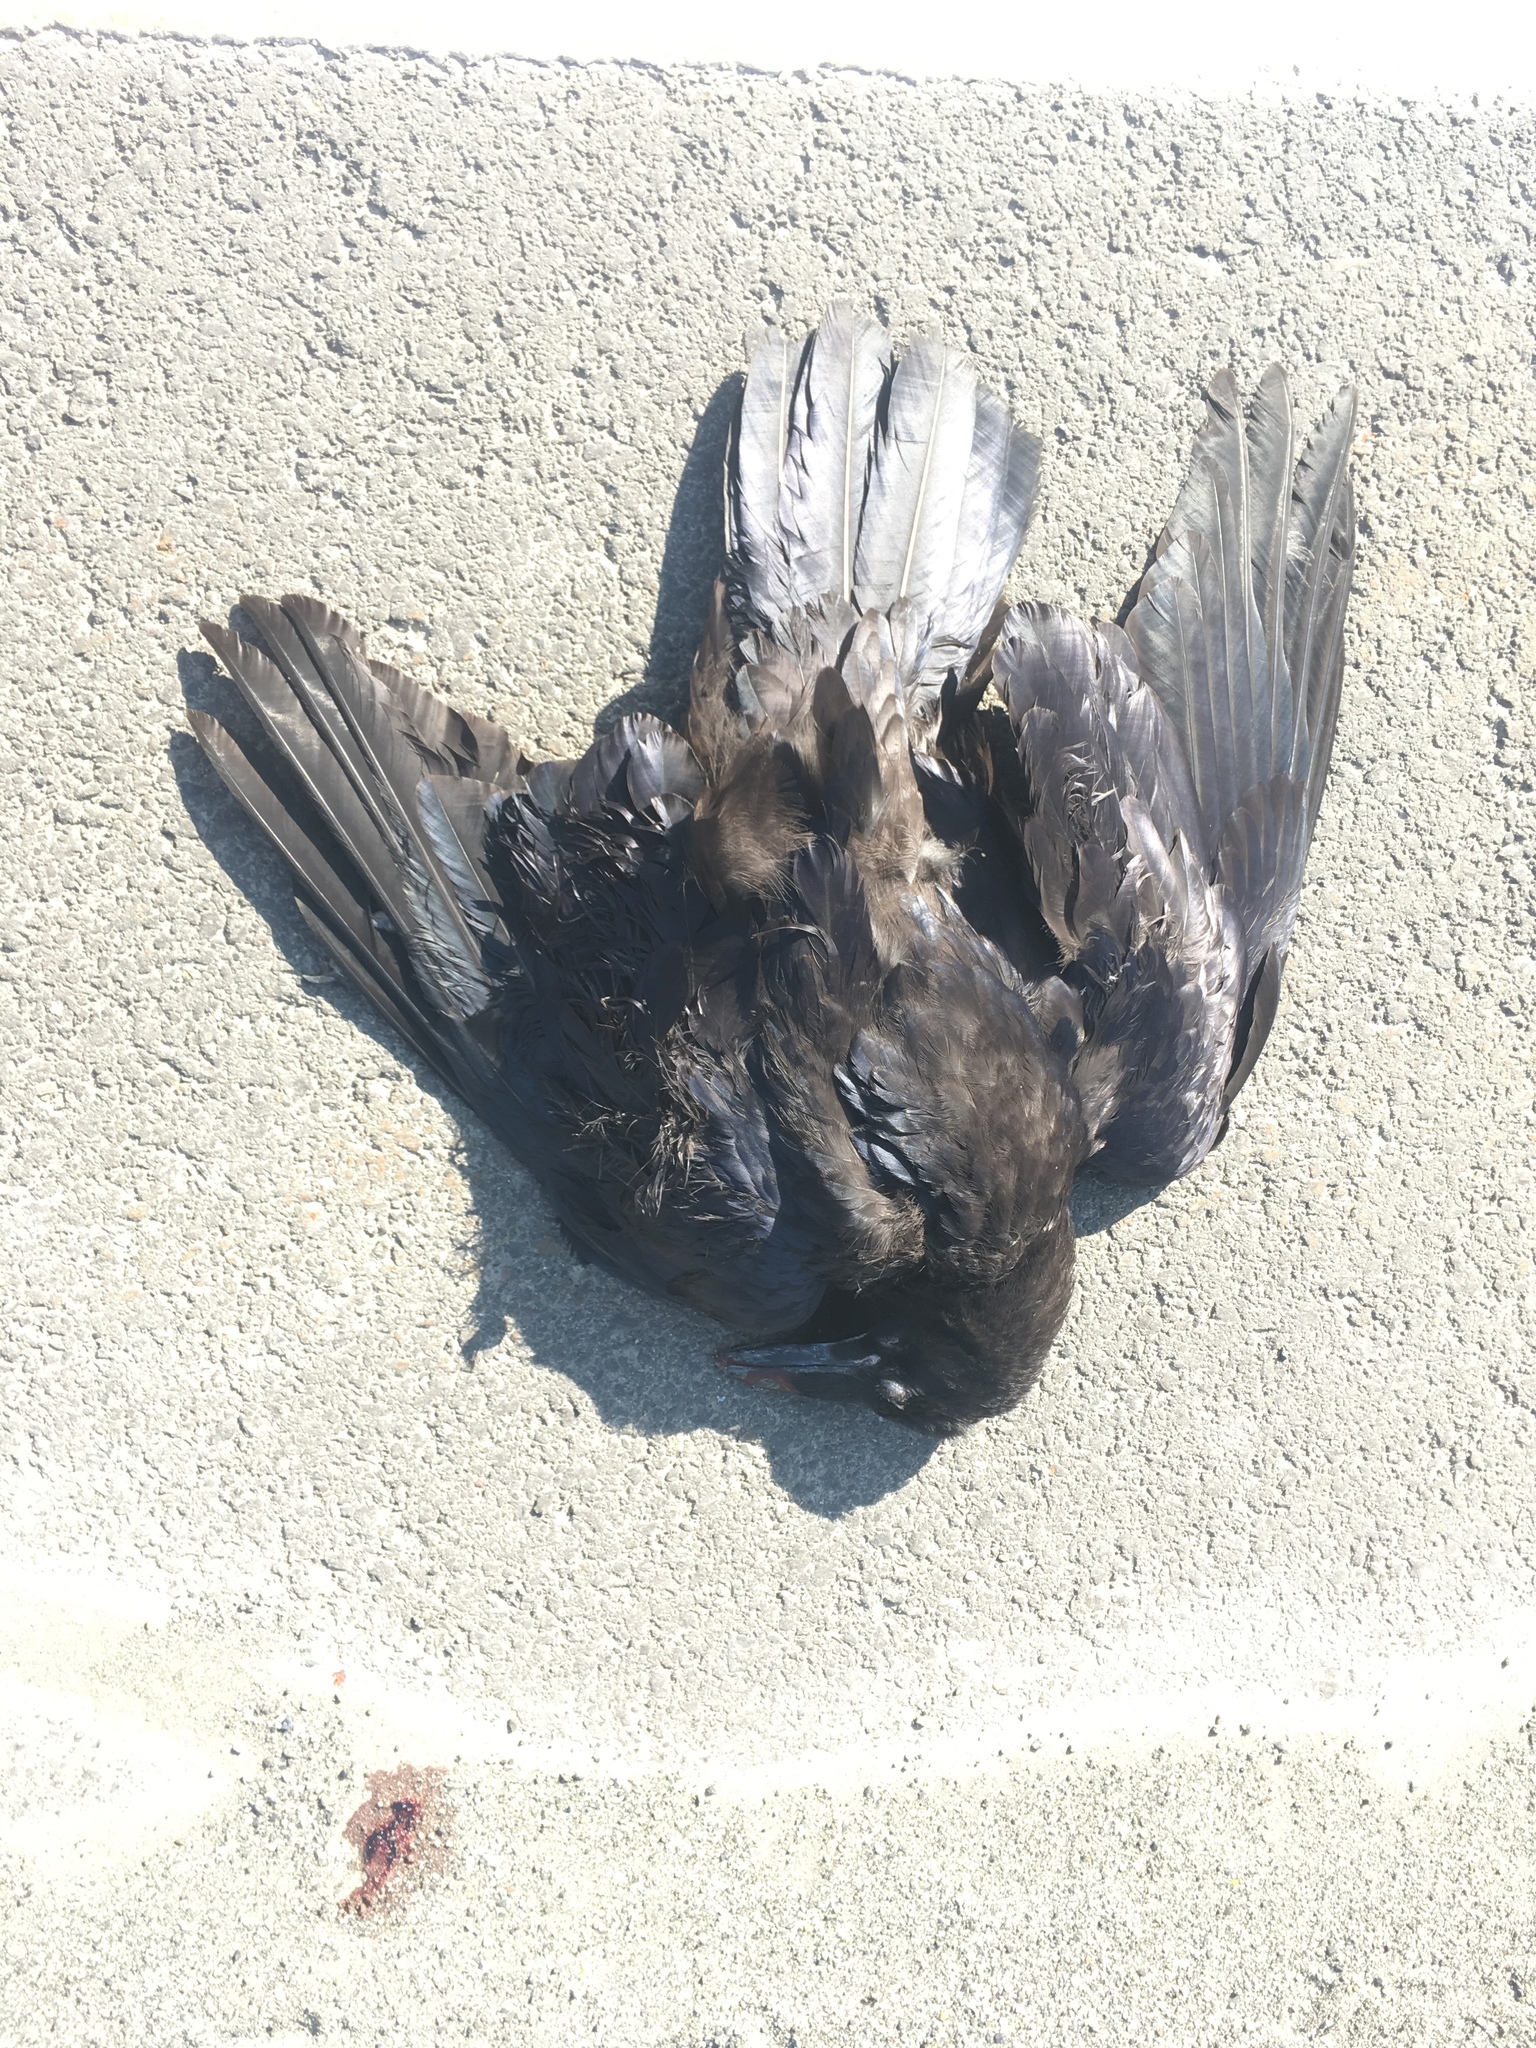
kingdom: Animalia
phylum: Chordata
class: Aves
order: Passeriformes
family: Corvidae
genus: Corvus
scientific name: Corvus corax
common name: Common raven
